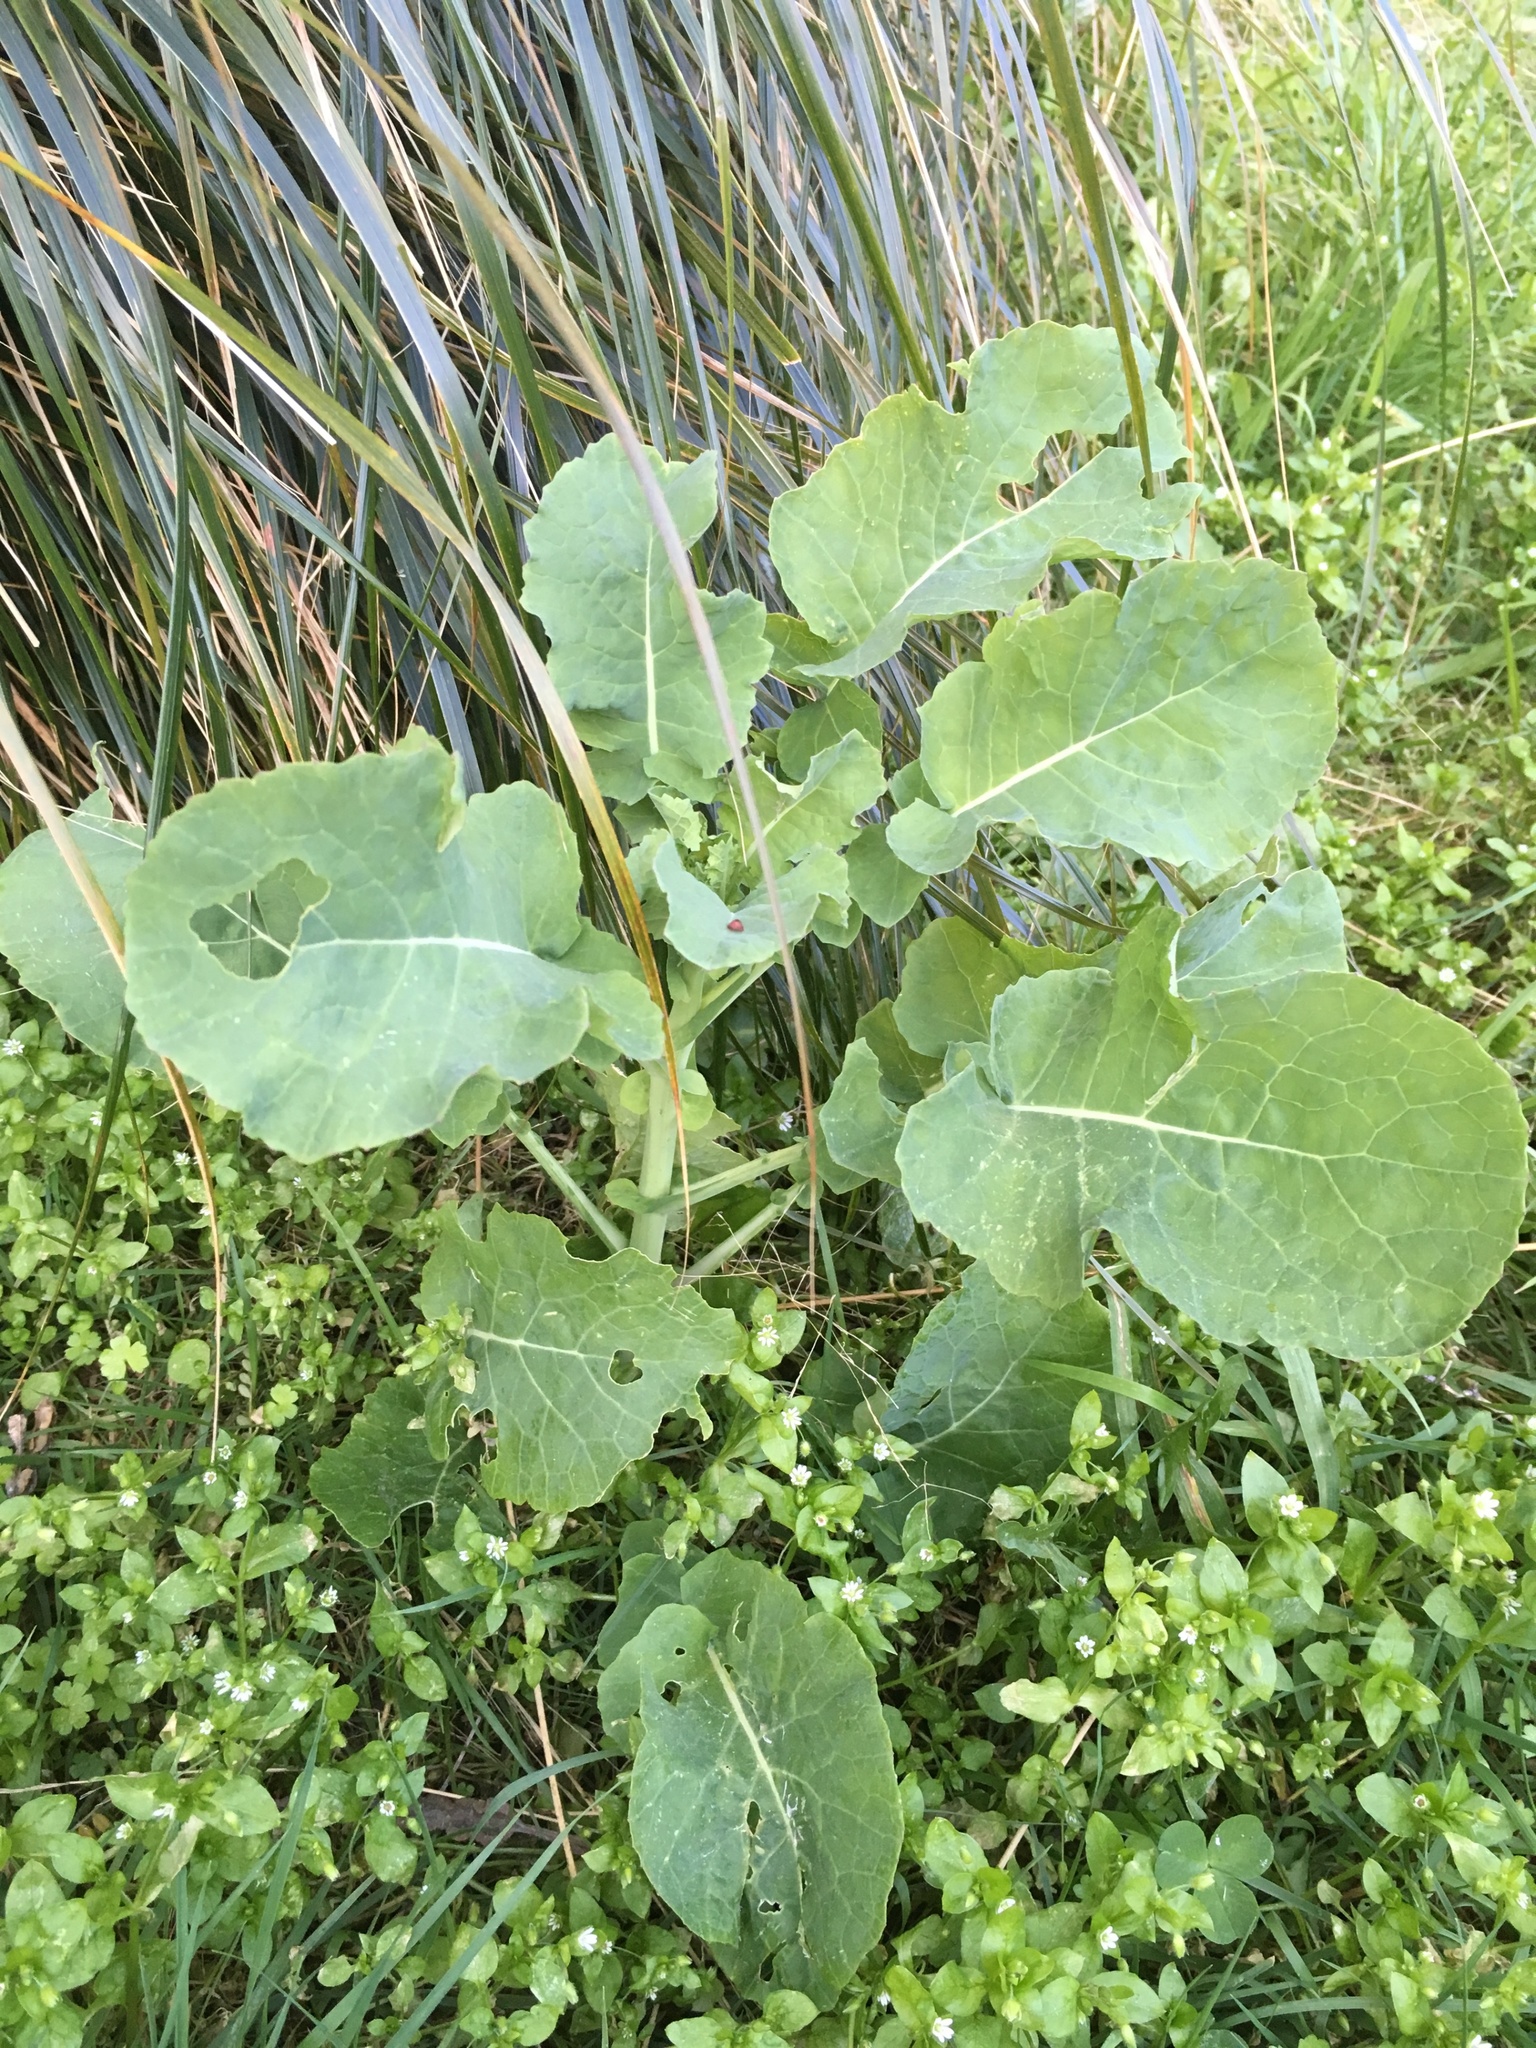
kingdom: Plantae
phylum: Tracheophyta
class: Magnoliopsida
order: Brassicales
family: Brassicaceae
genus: Brassica
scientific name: Brassica oleracea
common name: Cabbage
